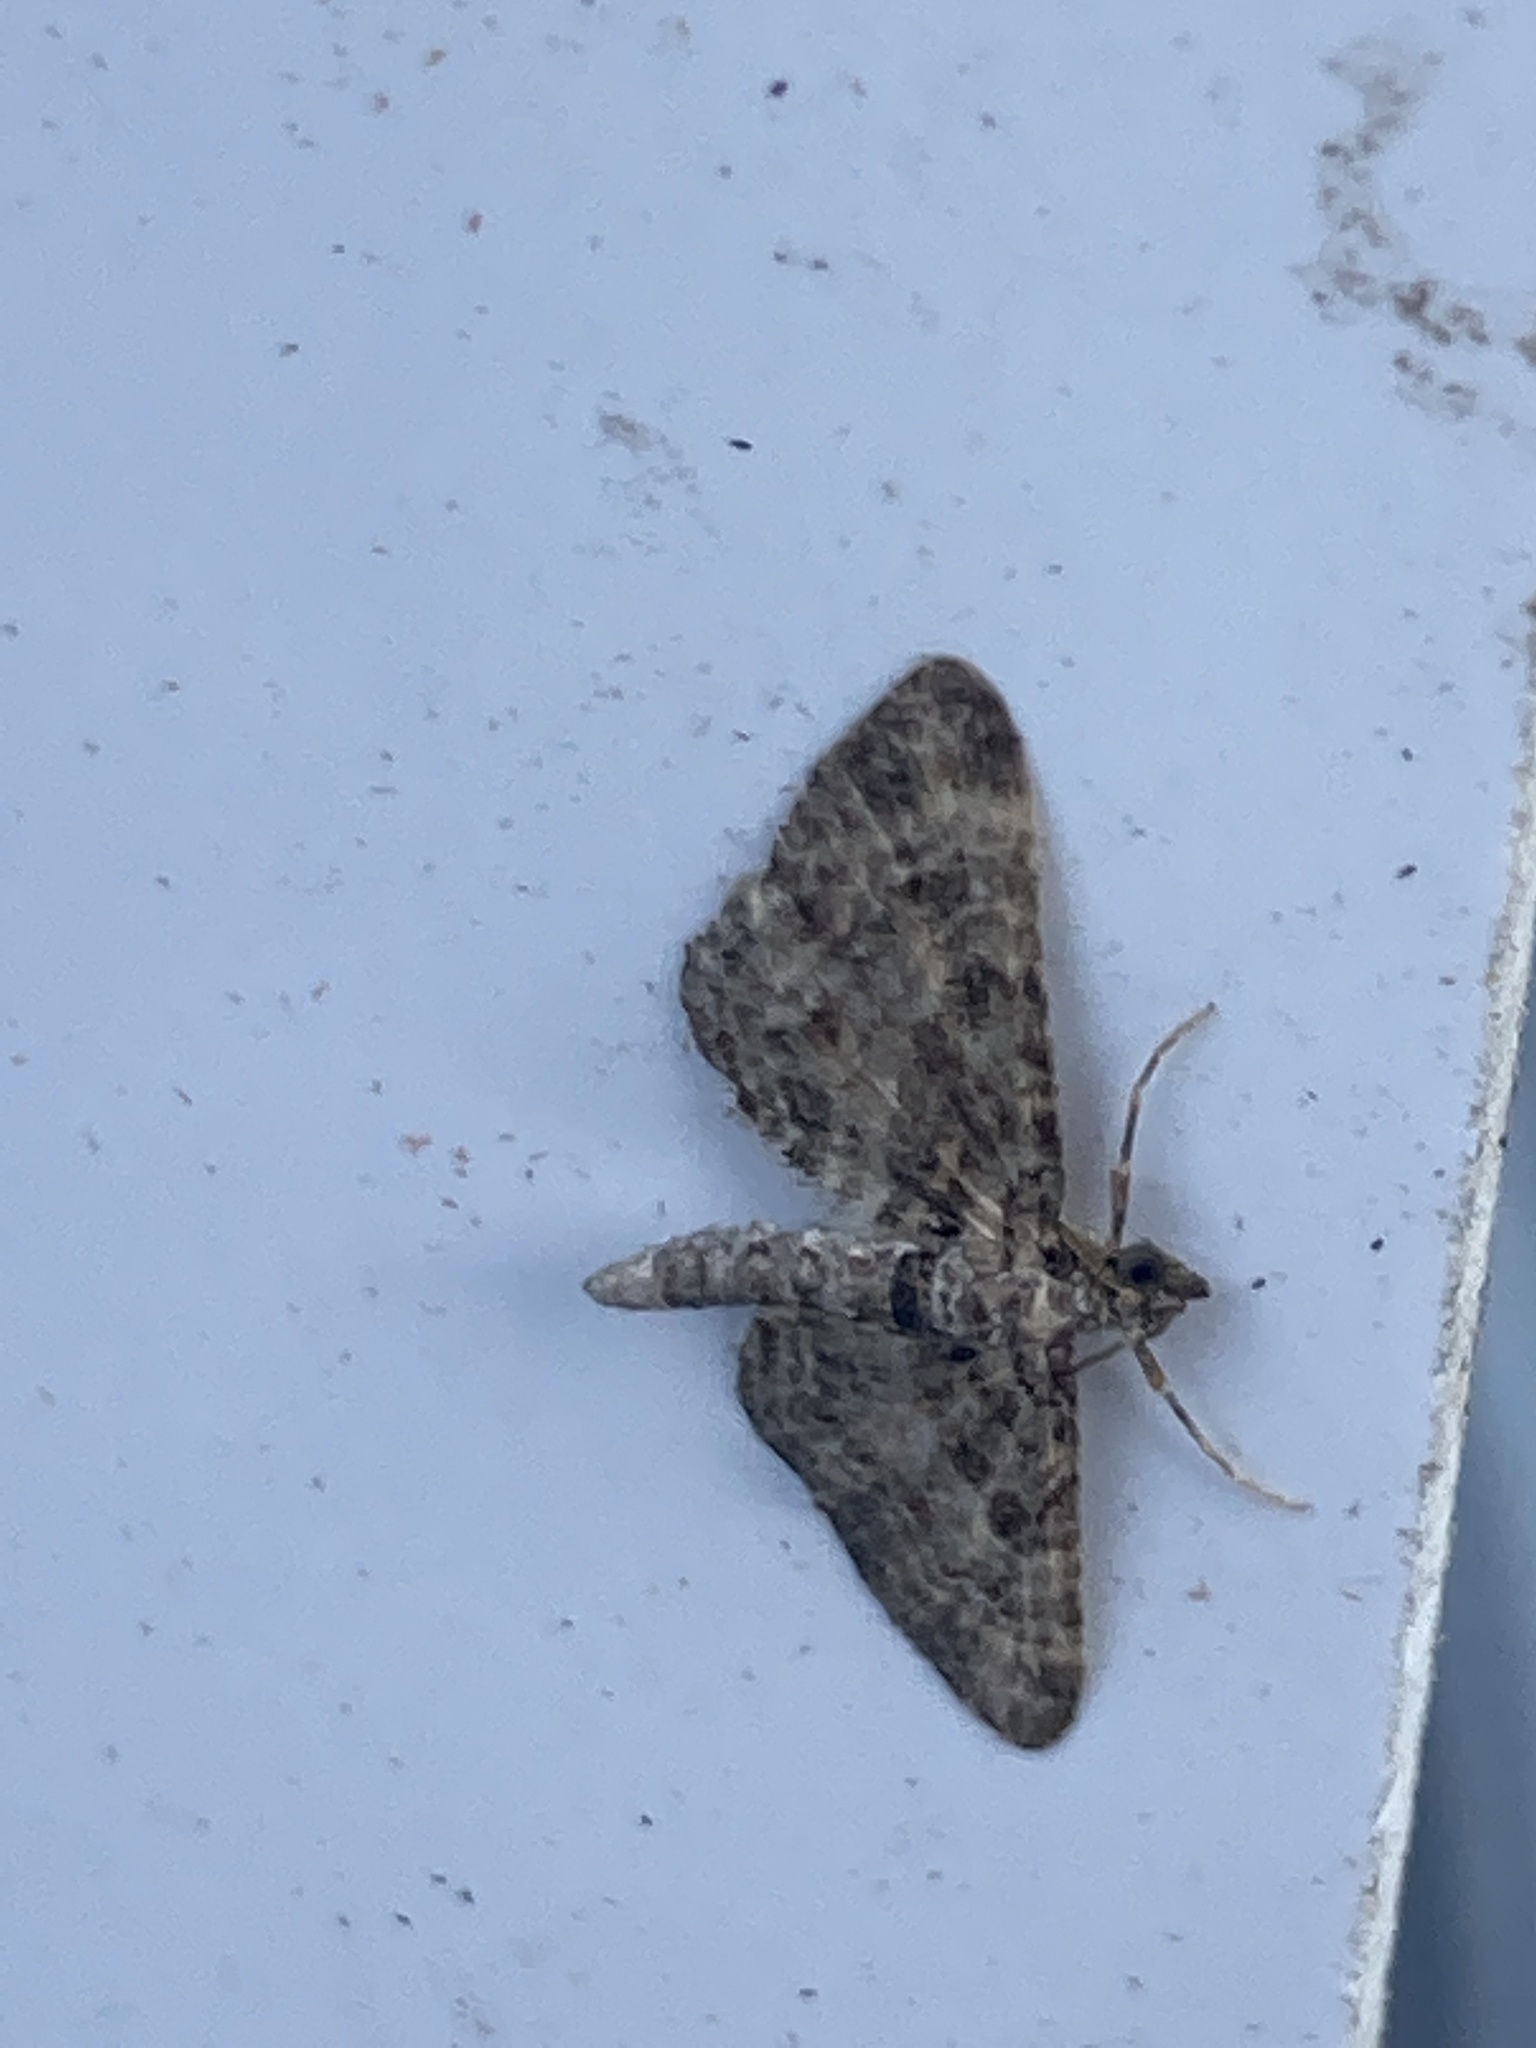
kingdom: Animalia
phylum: Arthropoda
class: Insecta
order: Lepidoptera
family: Geometridae
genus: Gymnoscelis
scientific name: Gymnoscelis rufifasciata
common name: Double-striped pug
